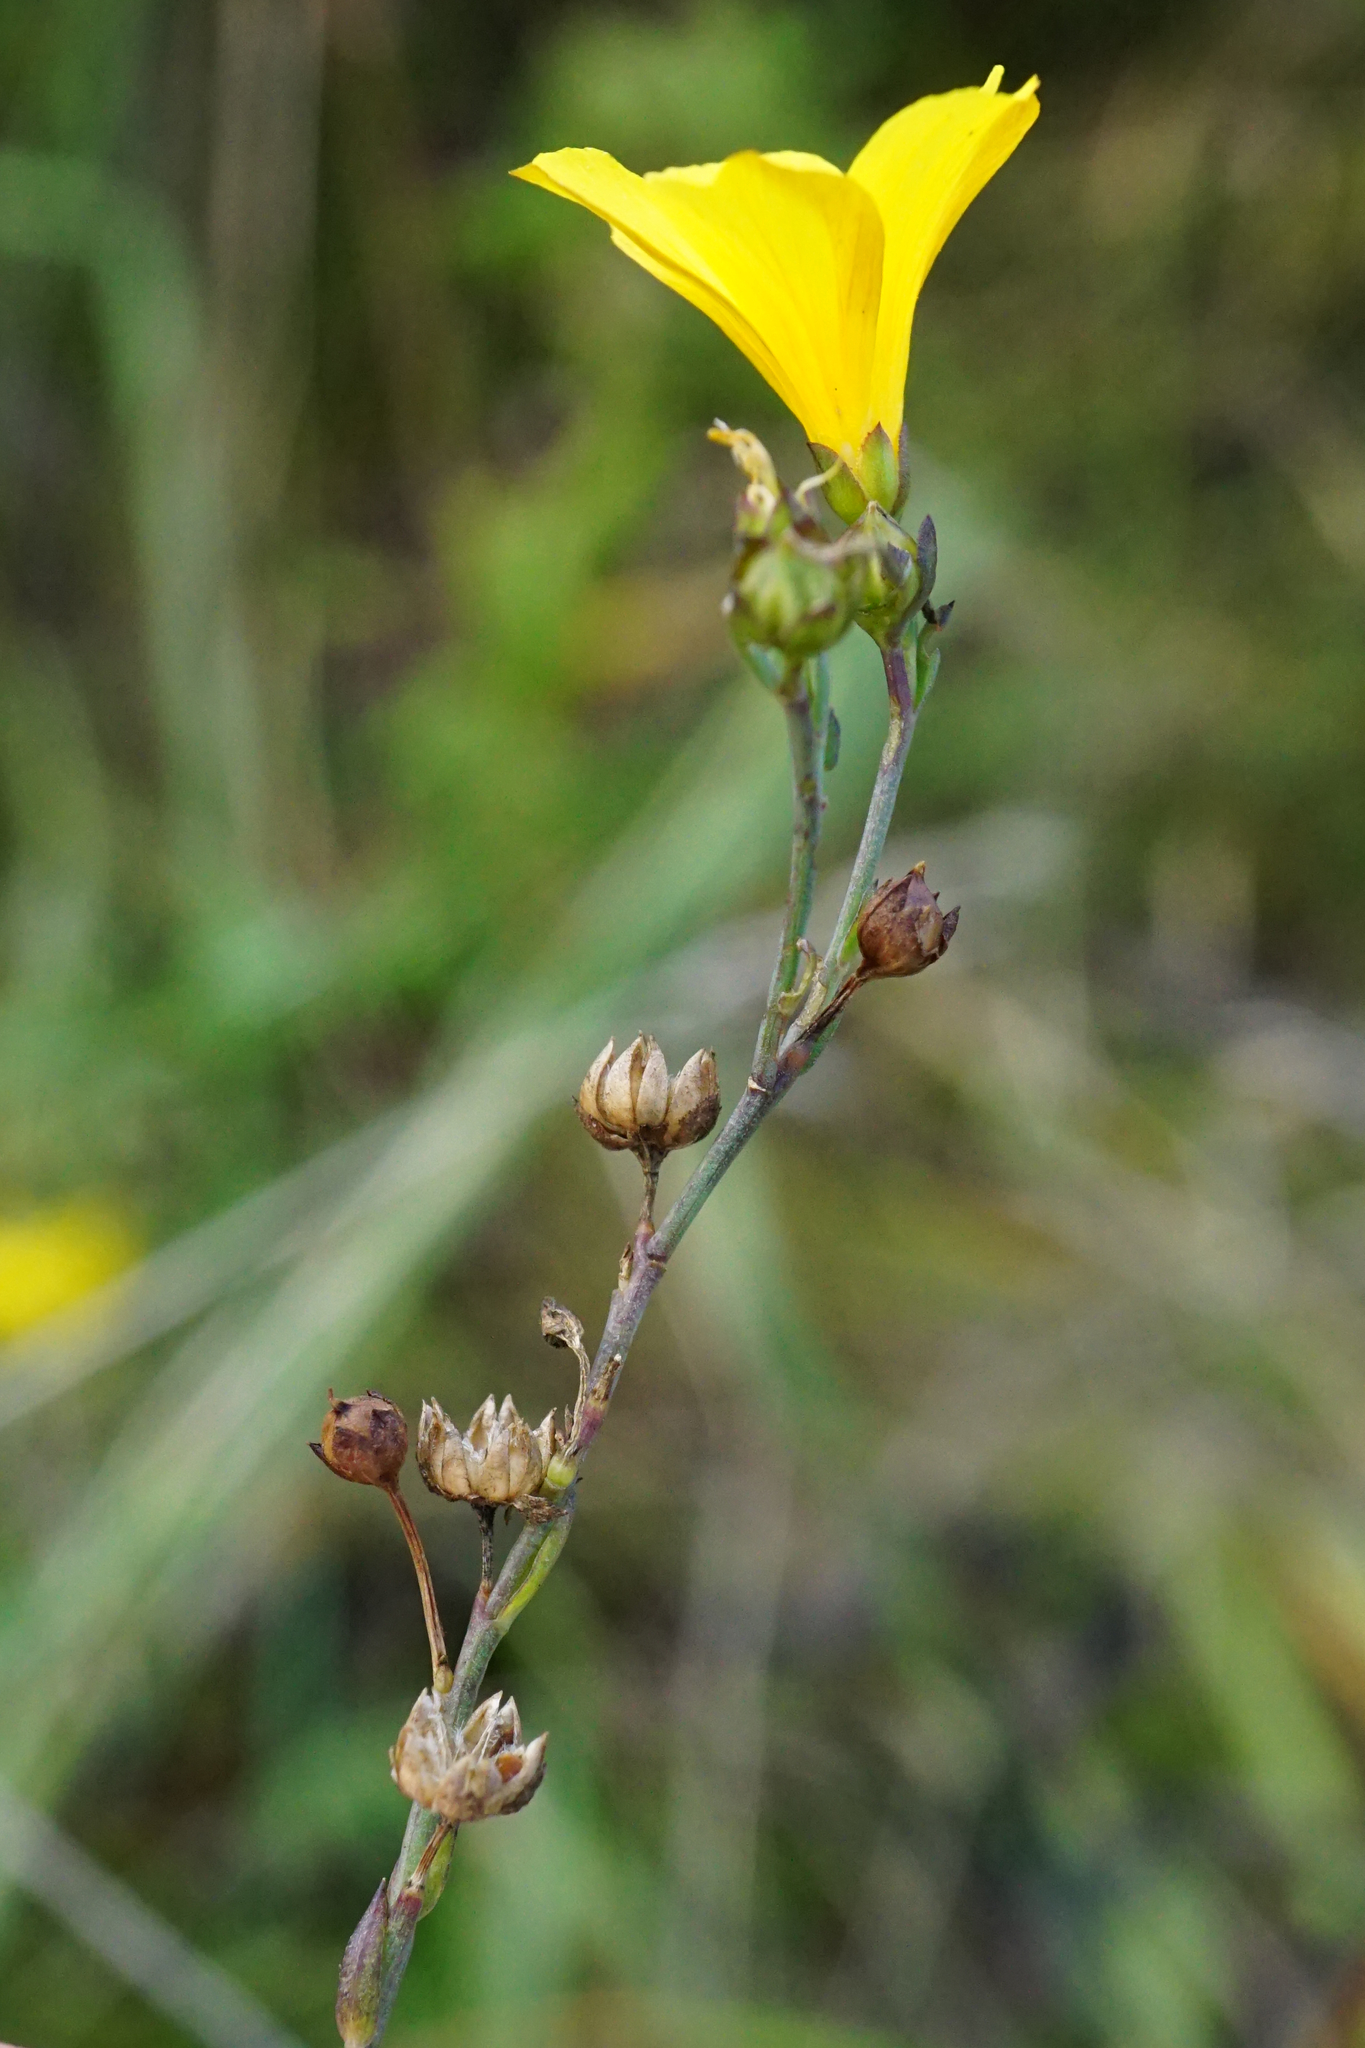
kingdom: Plantae
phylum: Tracheophyta
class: Magnoliopsida
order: Malpighiales
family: Linaceae
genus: Linum
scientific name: Linum maritimum
